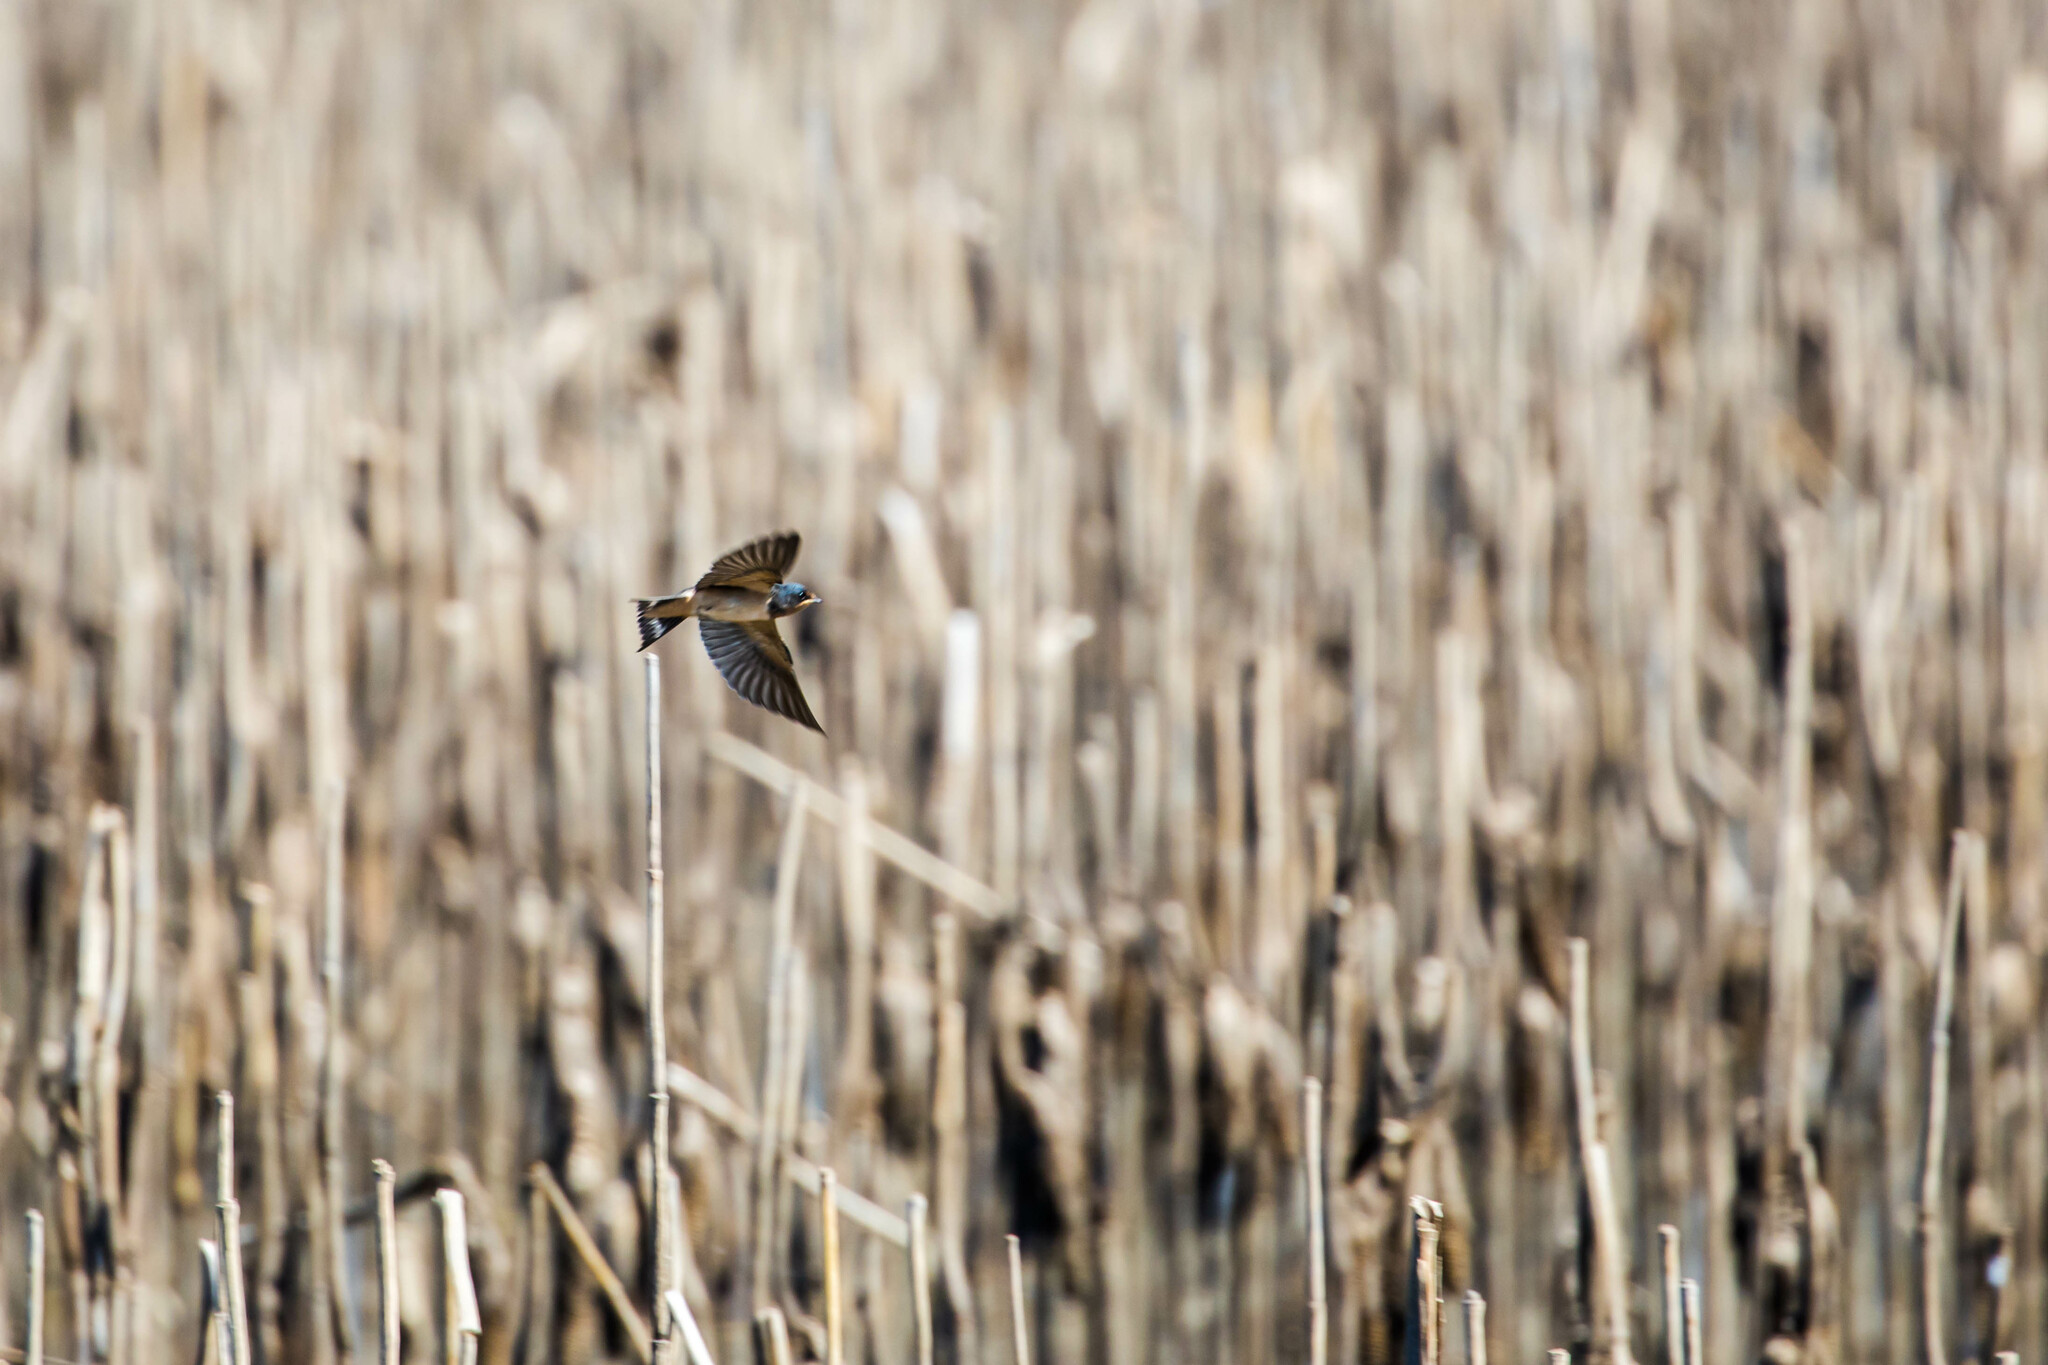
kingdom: Animalia
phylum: Chordata
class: Aves
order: Passeriformes
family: Hirundinidae
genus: Hirundo
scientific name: Hirundo rustica
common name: Barn swallow
